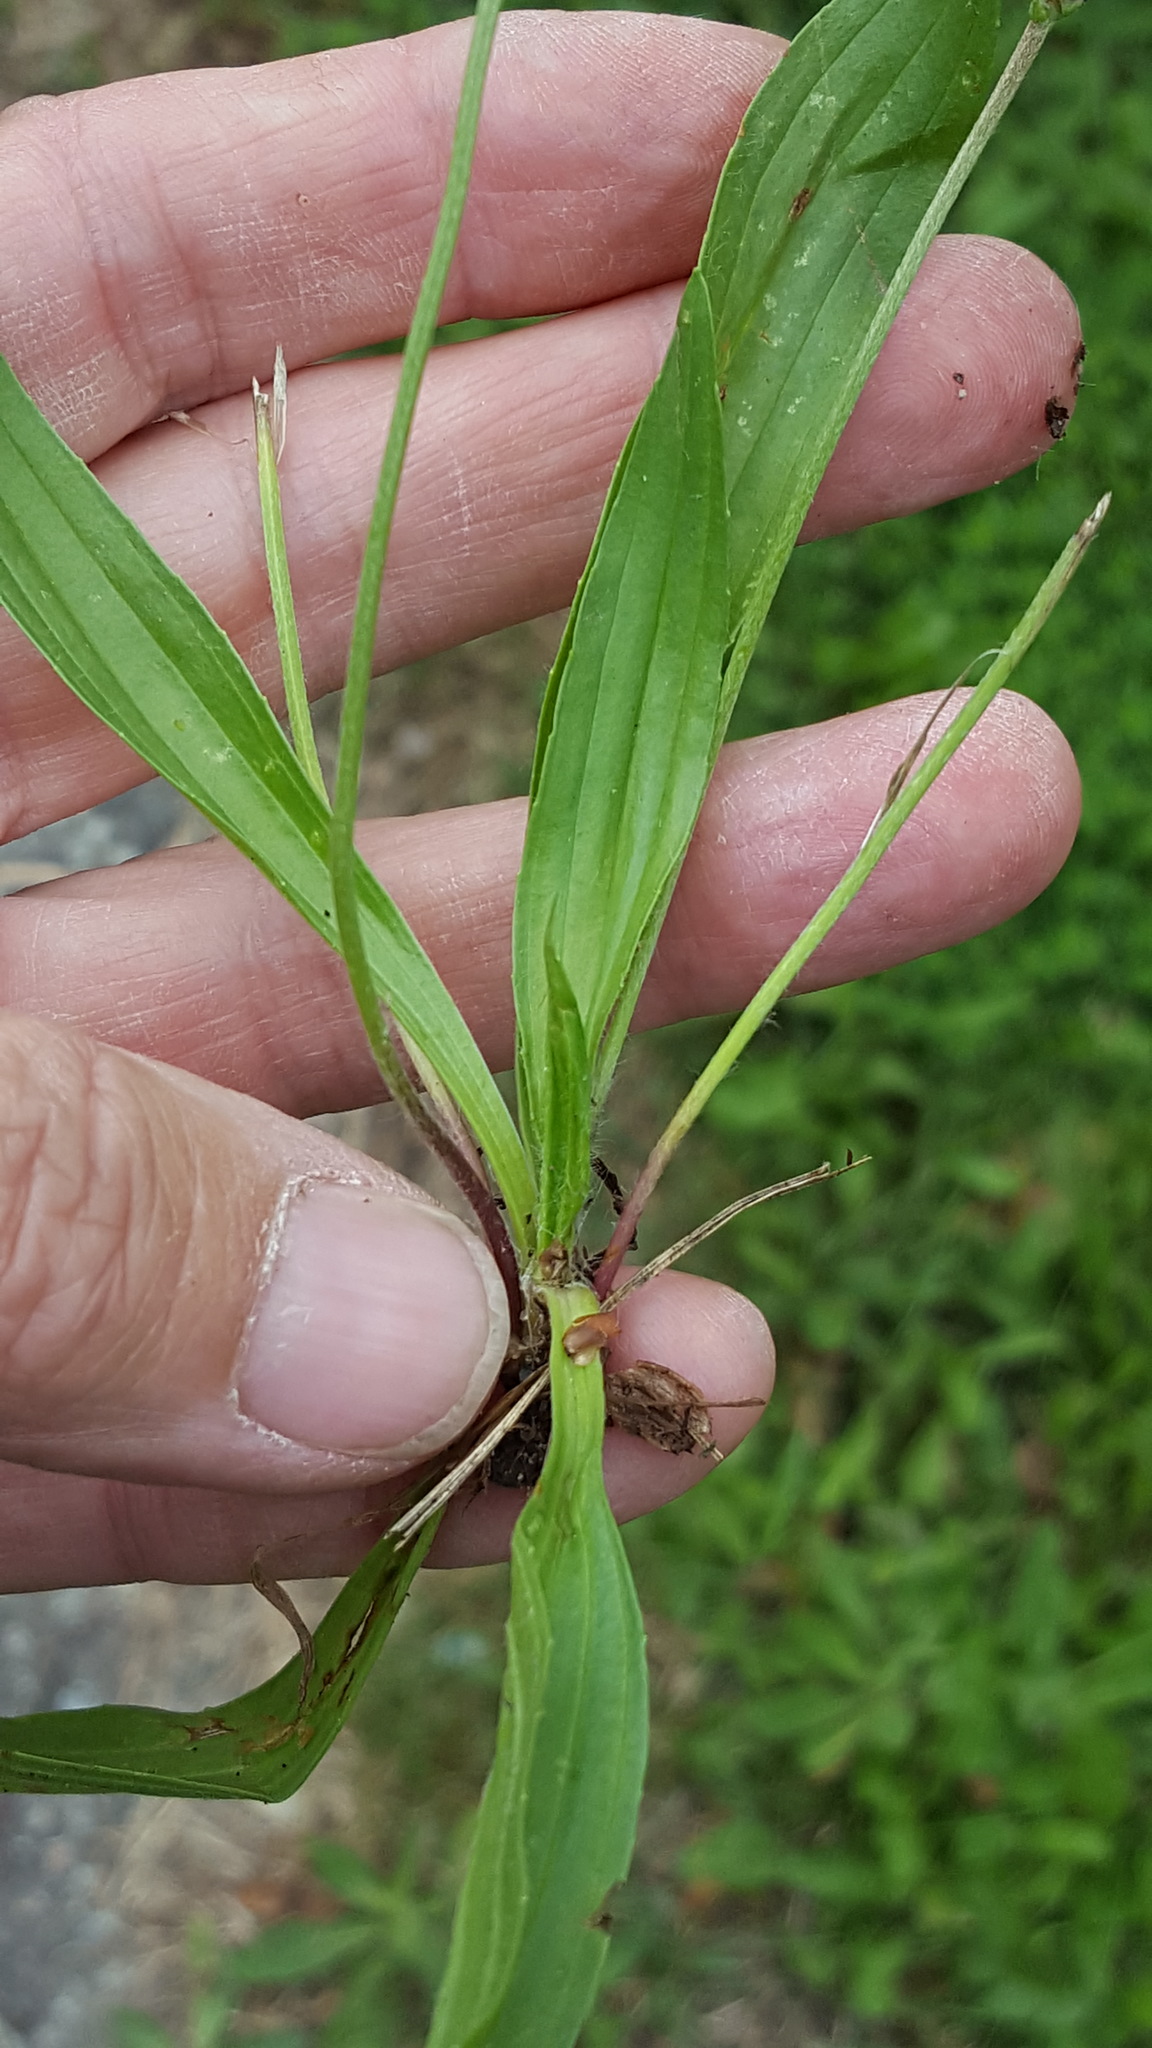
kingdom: Plantae
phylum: Tracheophyta
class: Magnoliopsida
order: Lamiales
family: Plantaginaceae
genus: Plantago
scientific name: Plantago lanceolata
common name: Ribwort plantain
